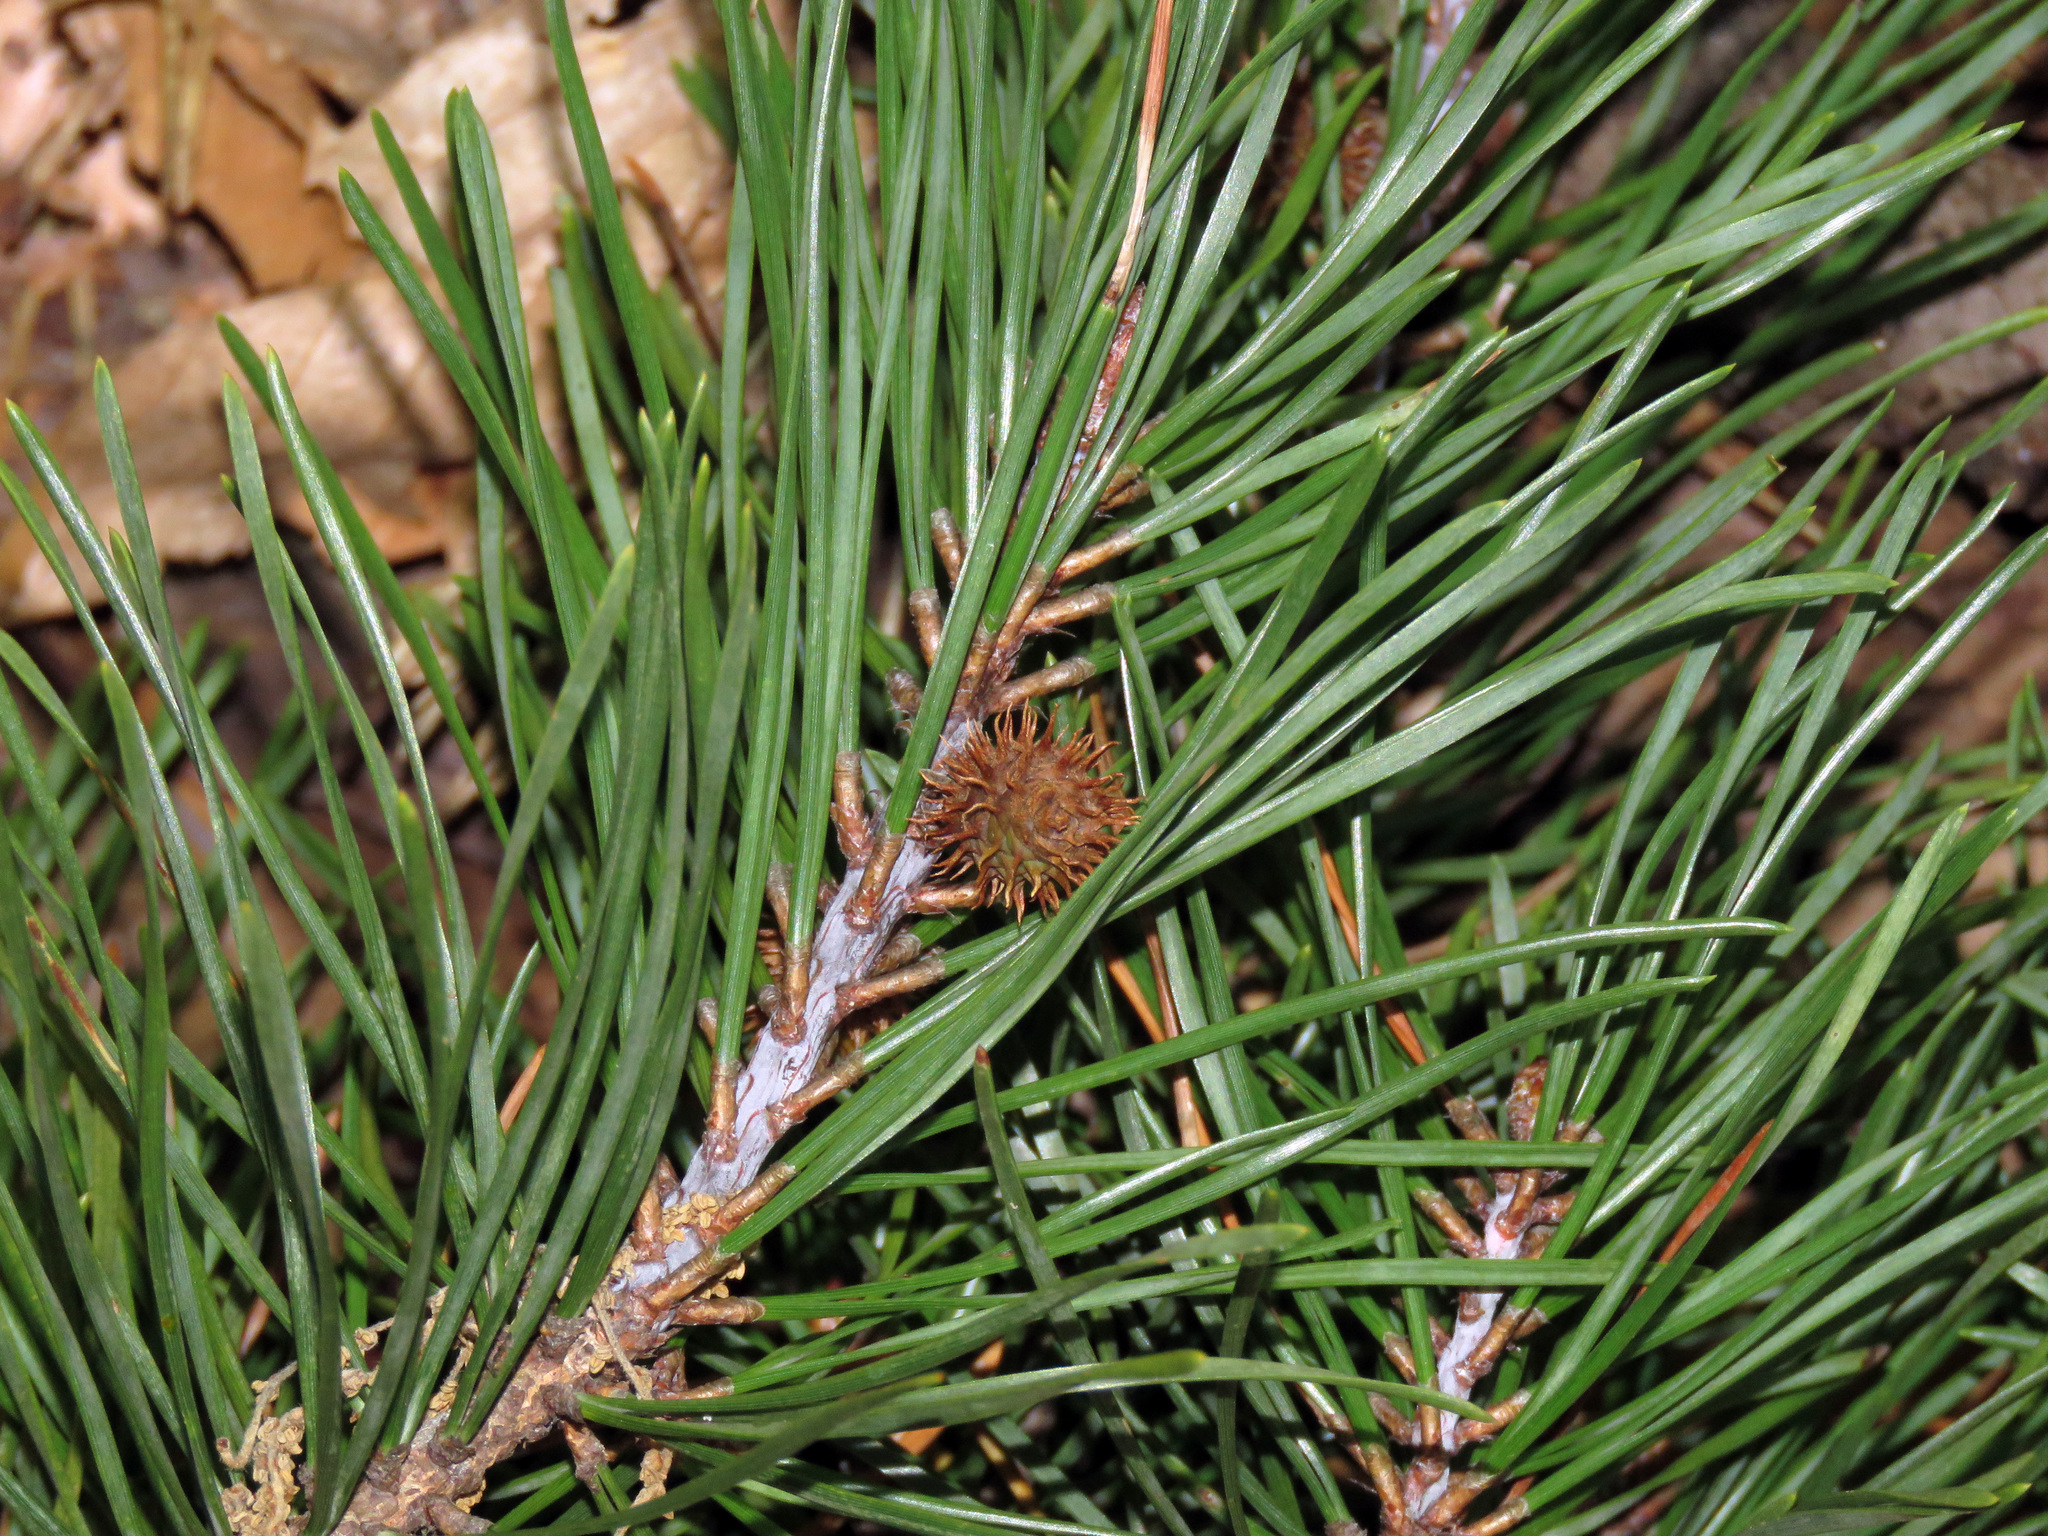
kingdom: Plantae
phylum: Tracheophyta
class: Pinopsida
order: Pinales
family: Pinaceae
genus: Pinus
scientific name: Pinus virginiana
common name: Scrub pine
